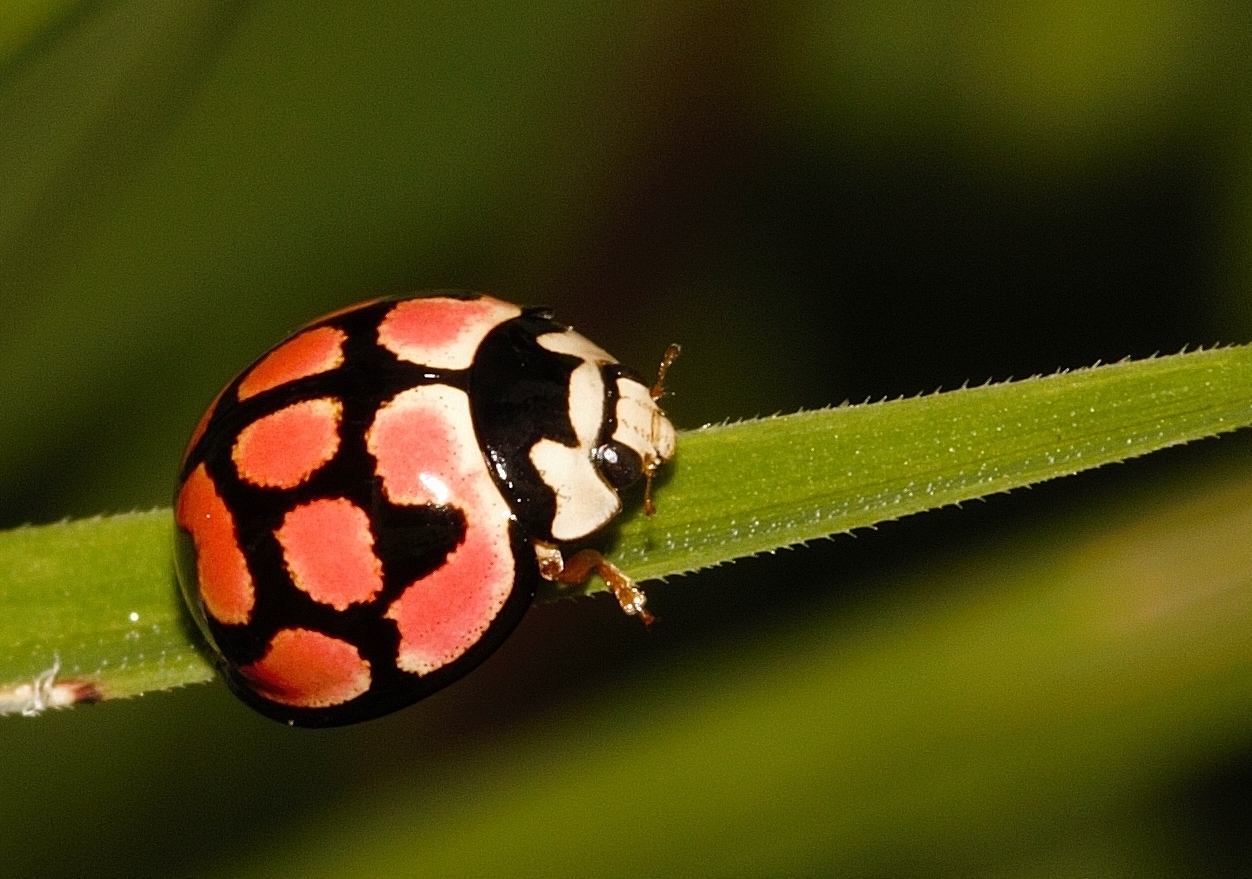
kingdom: Animalia
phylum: Arthropoda
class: Insecta
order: Coleoptera
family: Coccinellidae
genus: Cheilomenes
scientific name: Cheilomenes lunata
